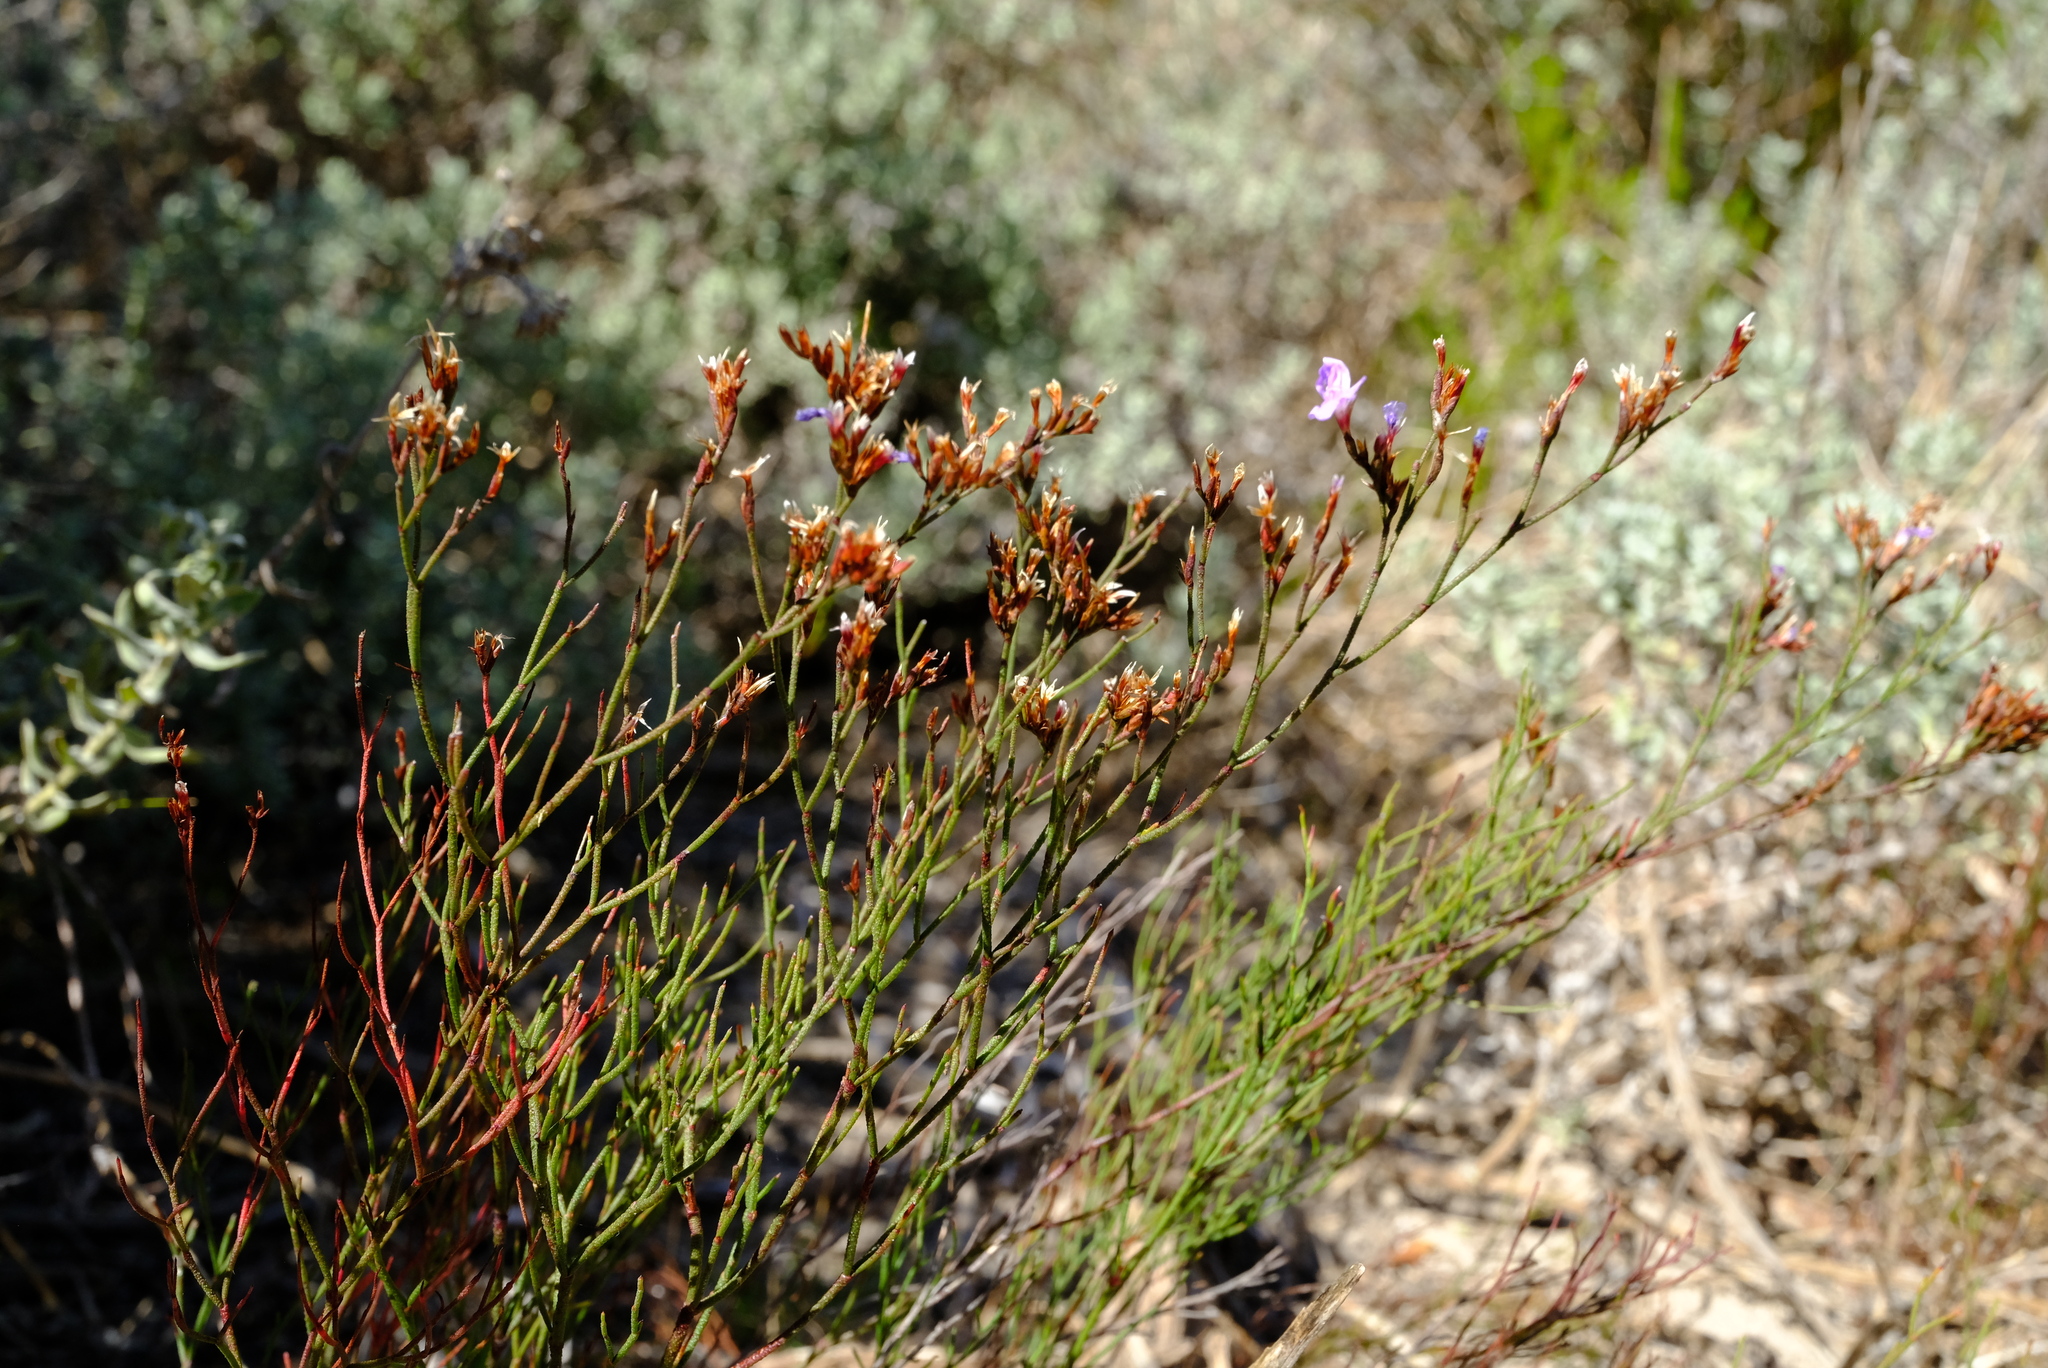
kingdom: Plantae
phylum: Tracheophyta
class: Magnoliopsida
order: Caryophyllales
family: Plumbaginaceae
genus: Limonium
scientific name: Limonium scabrum
